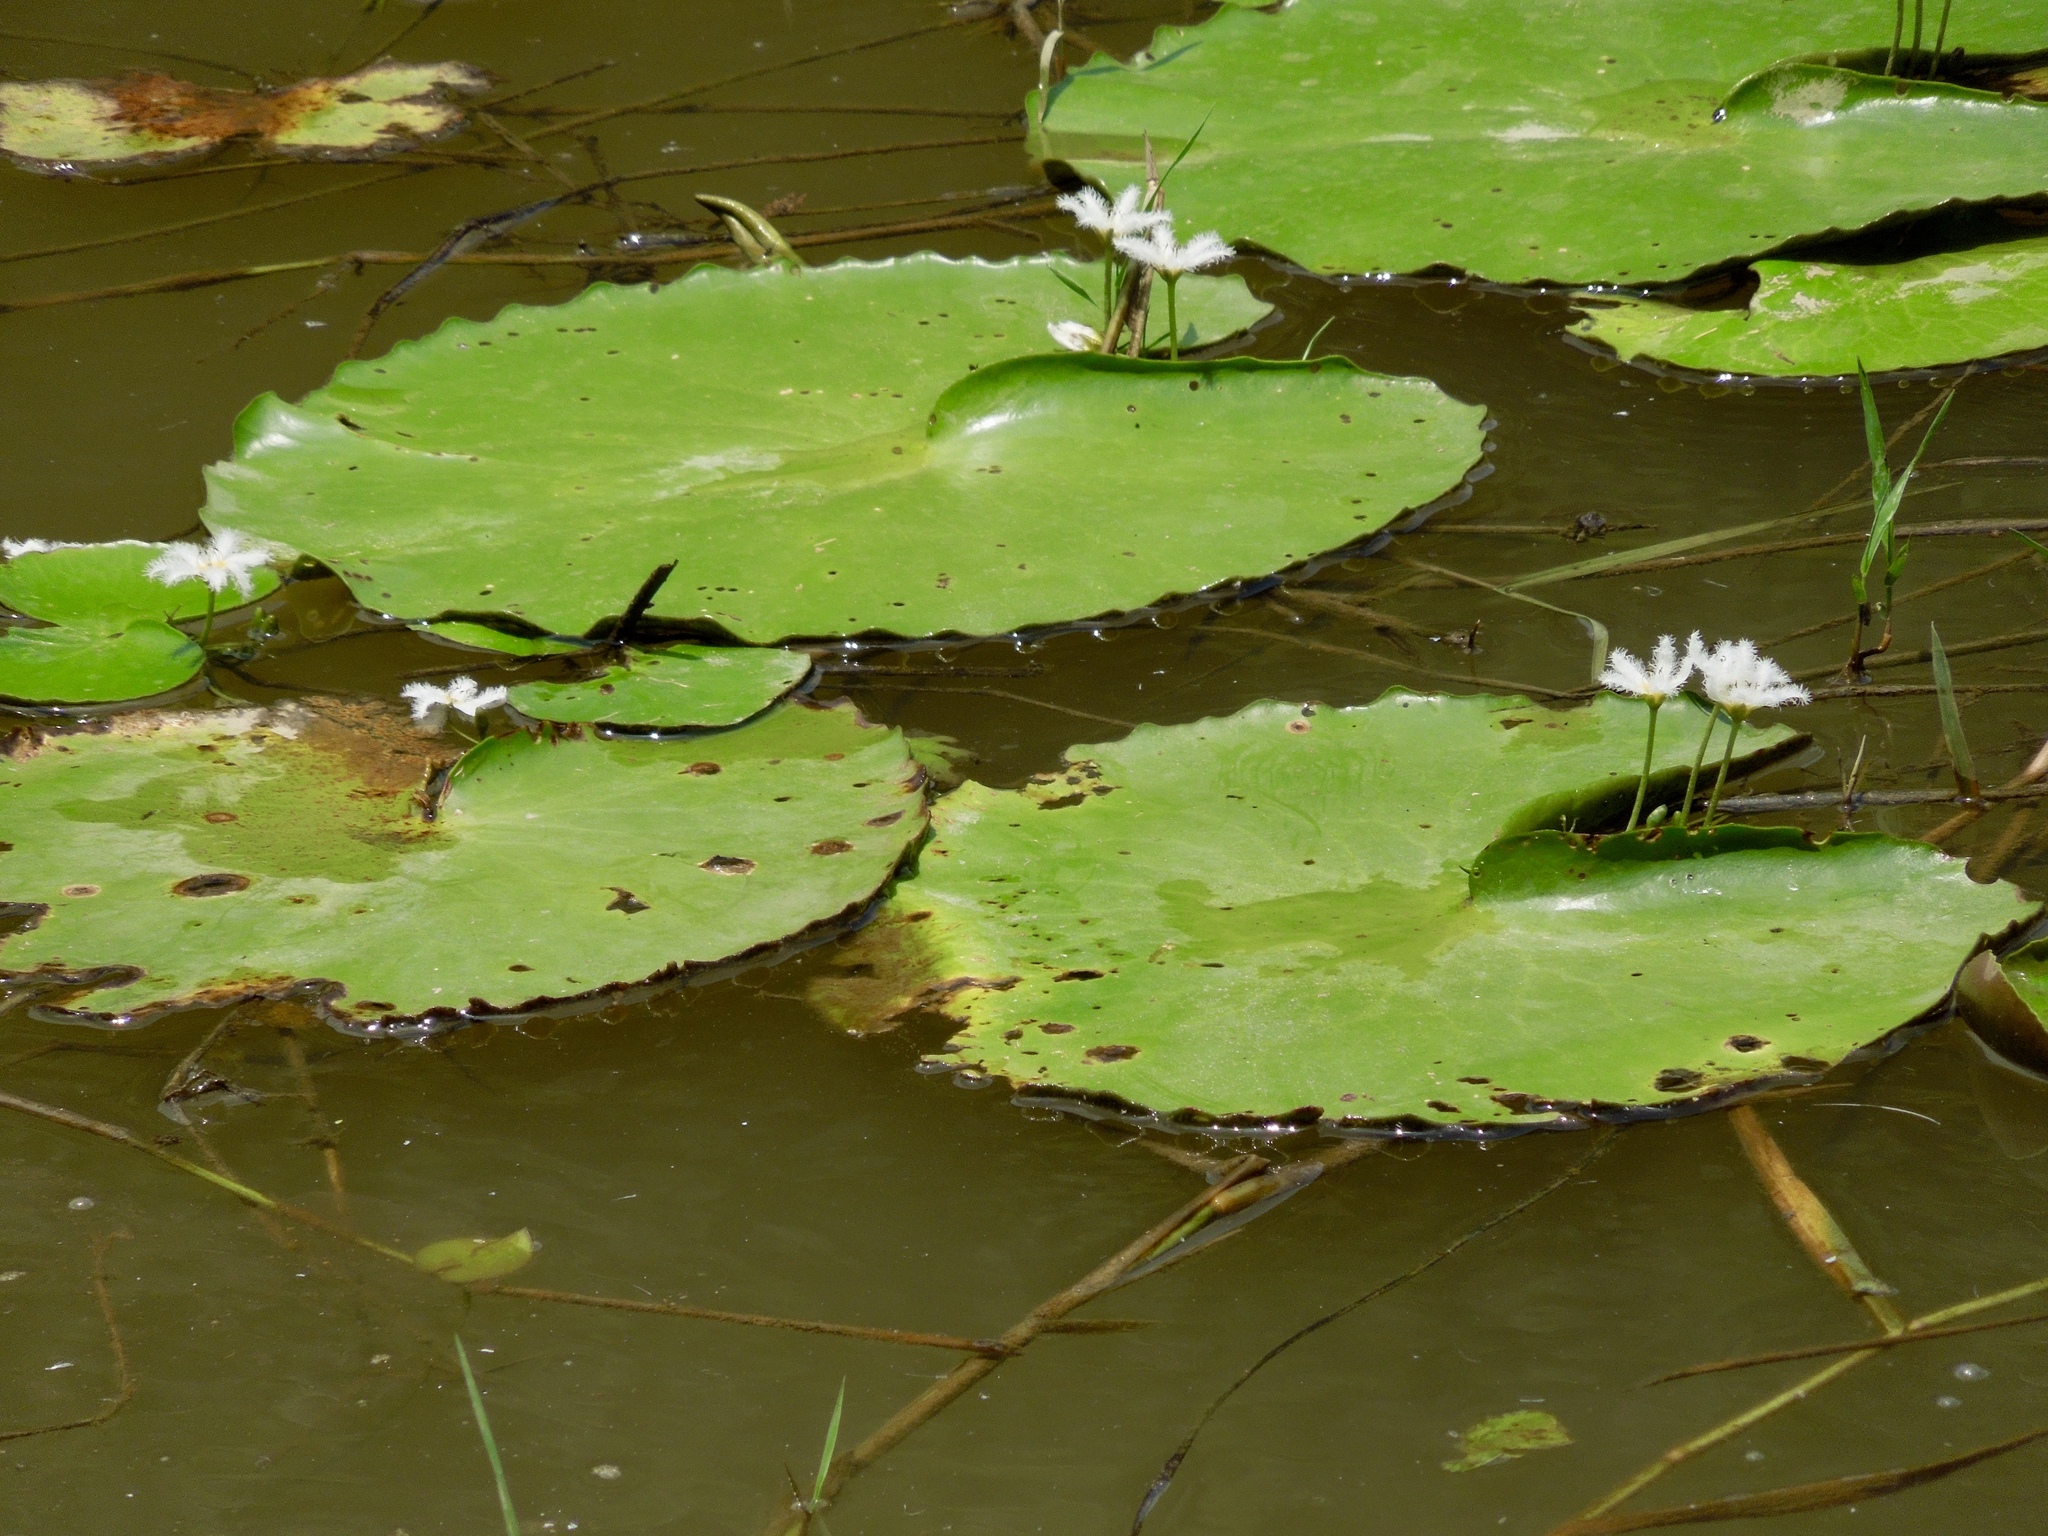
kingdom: Plantae
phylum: Tracheophyta
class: Magnoliopsida
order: Asterales
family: Menyanthaceae
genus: Nymphoides
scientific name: Nymphoides indica
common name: Water-snowflake
